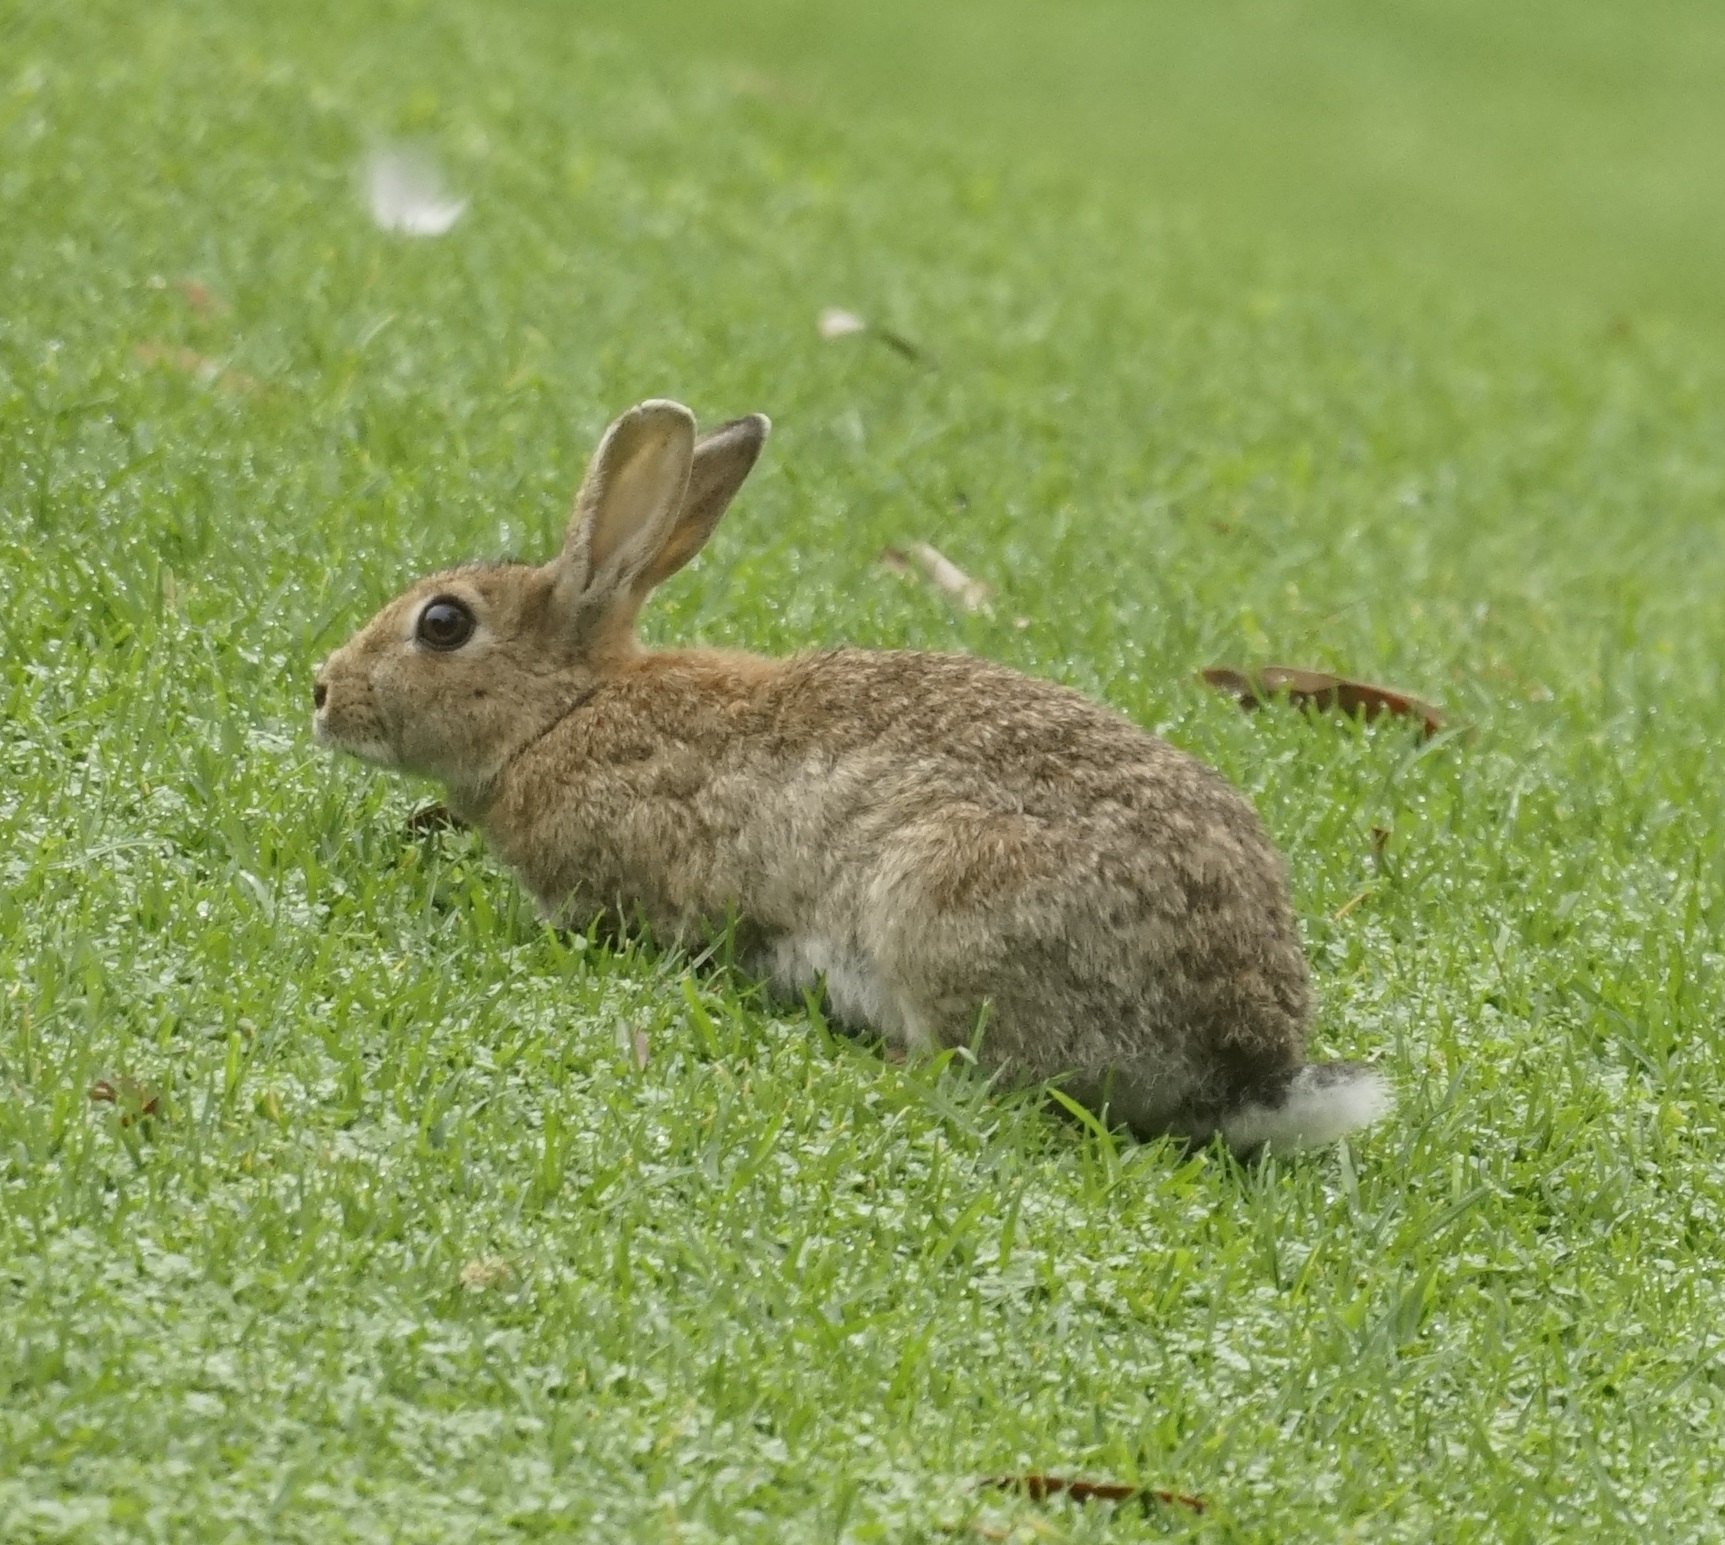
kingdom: Animalia
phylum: Chordata
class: Mammalia
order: Lagomorpha
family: Leporidae
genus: Oryctolagus
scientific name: Oryctolagus cuniculus
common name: European rabbit
